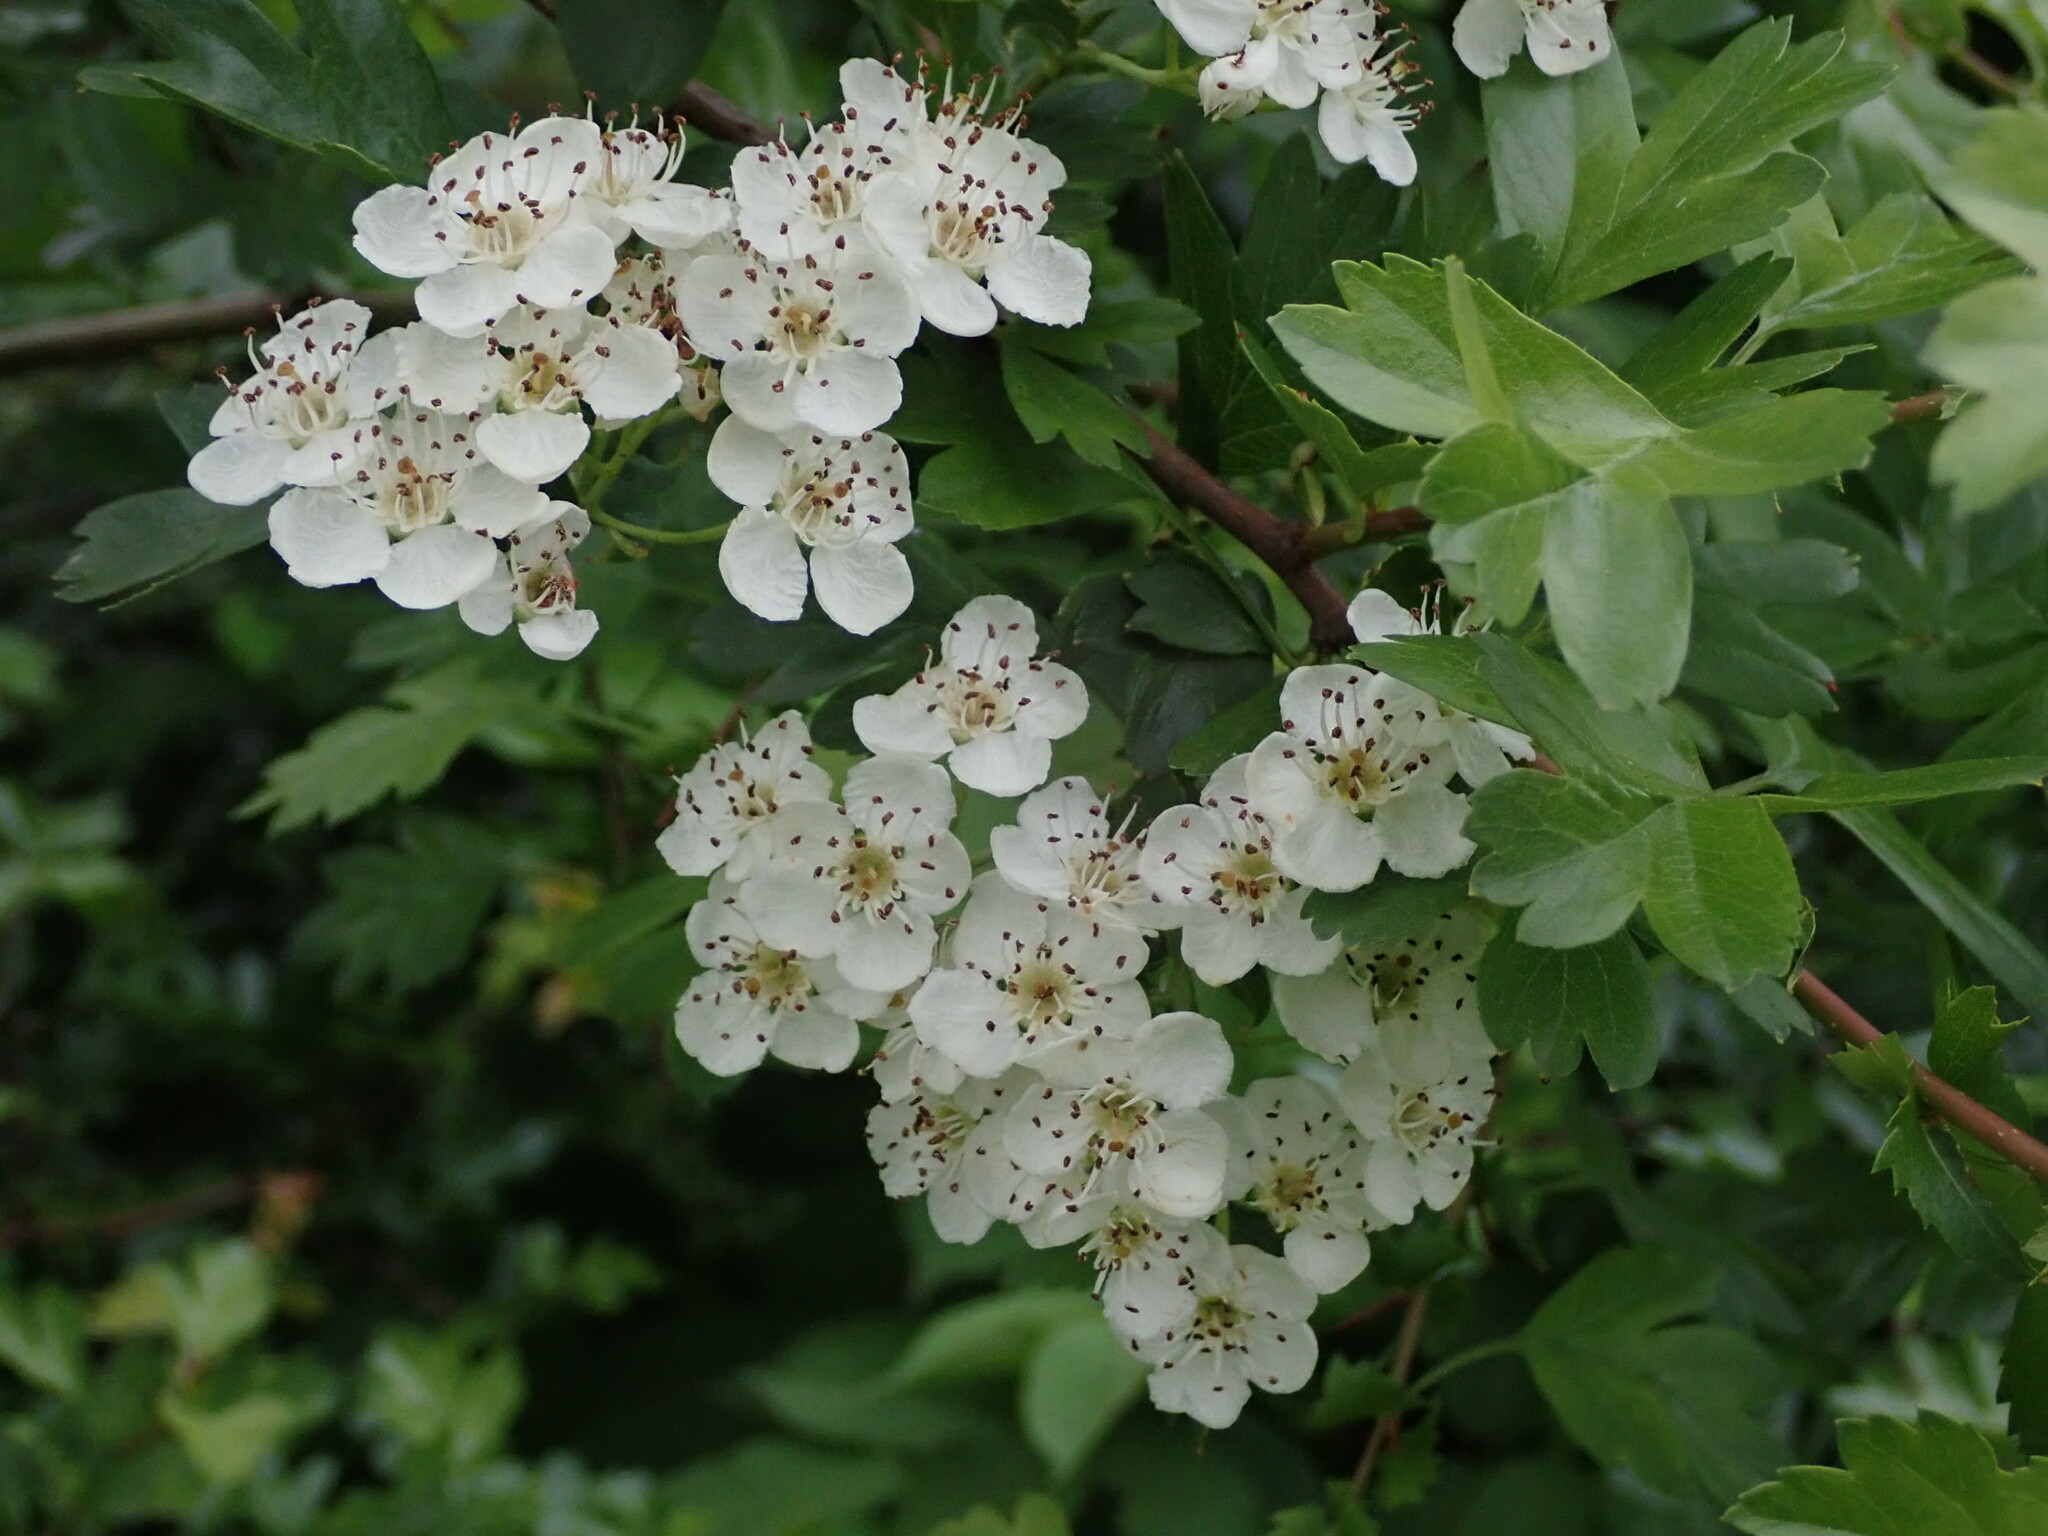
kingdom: Plantae
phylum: Tracheophyta
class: Magnoliopsida
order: Rosales
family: Rosaceae
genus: Crataegus
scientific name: Crataegus monogyna
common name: Hawthorn
